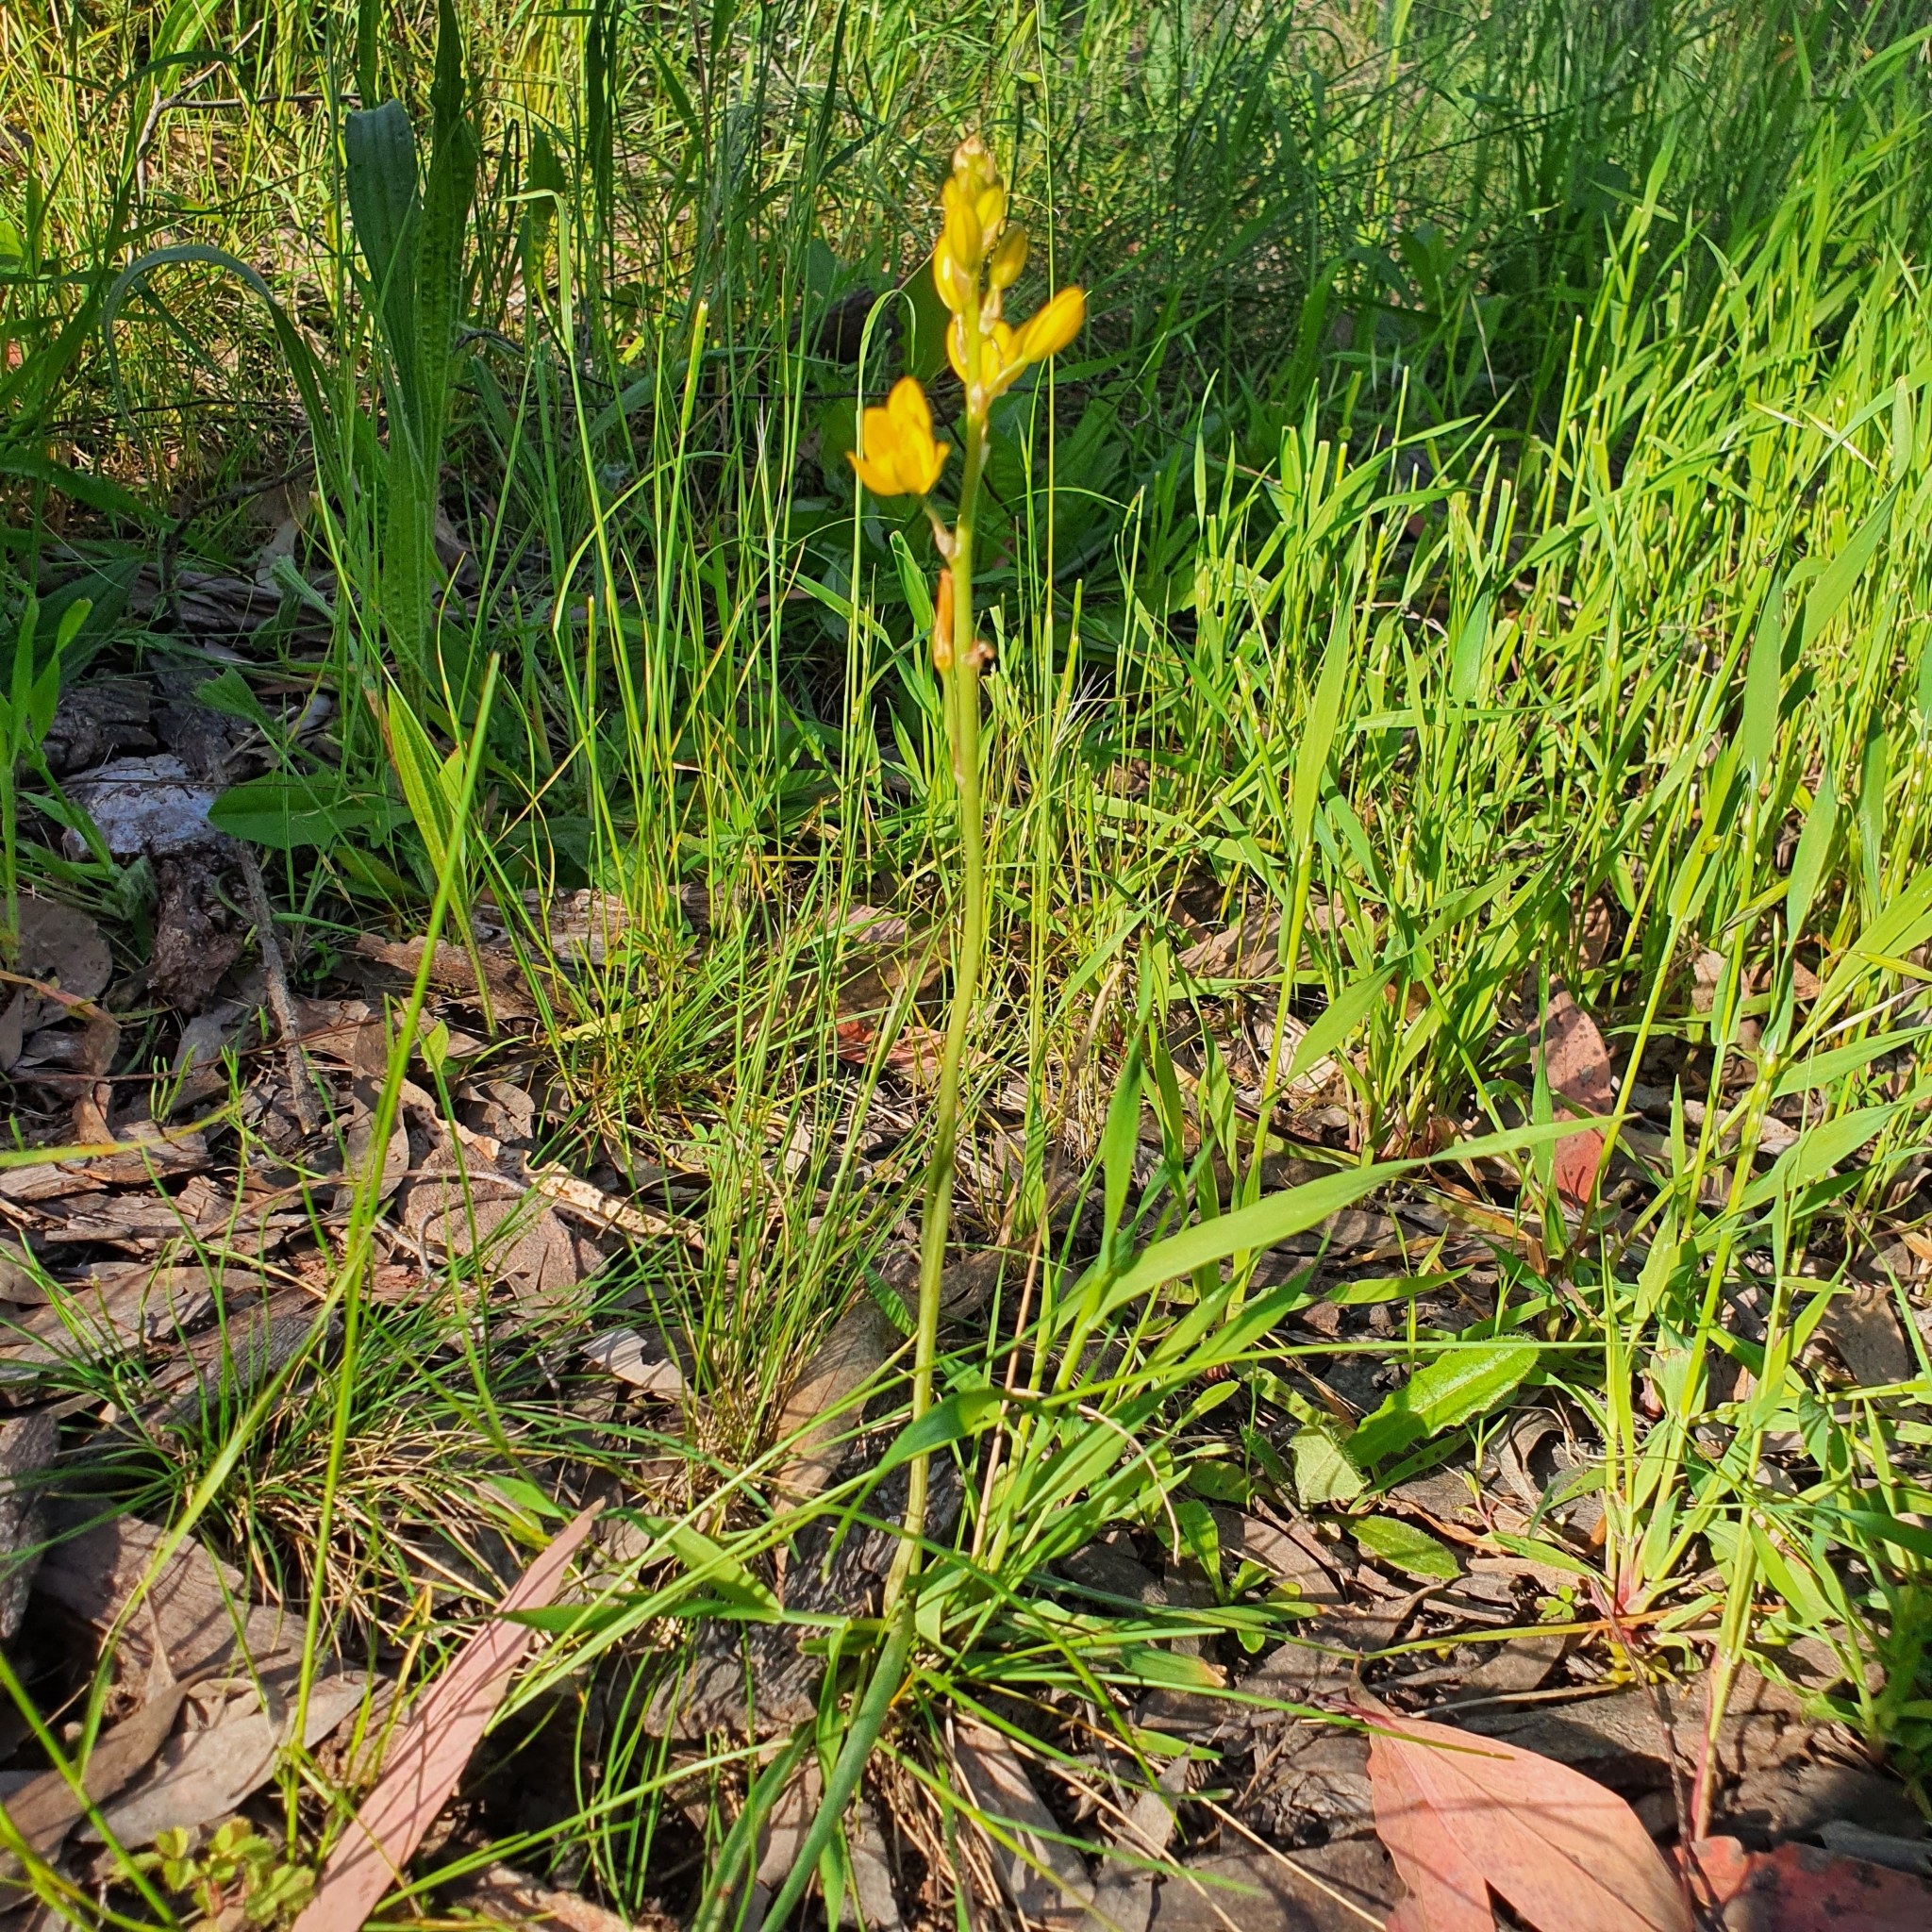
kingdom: Plantae
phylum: Tracheophyta
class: Liliopsida
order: Asparagales
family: Asphodelaceae
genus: Bulbine
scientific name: Bulbine bulbosa
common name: Golden-lily
